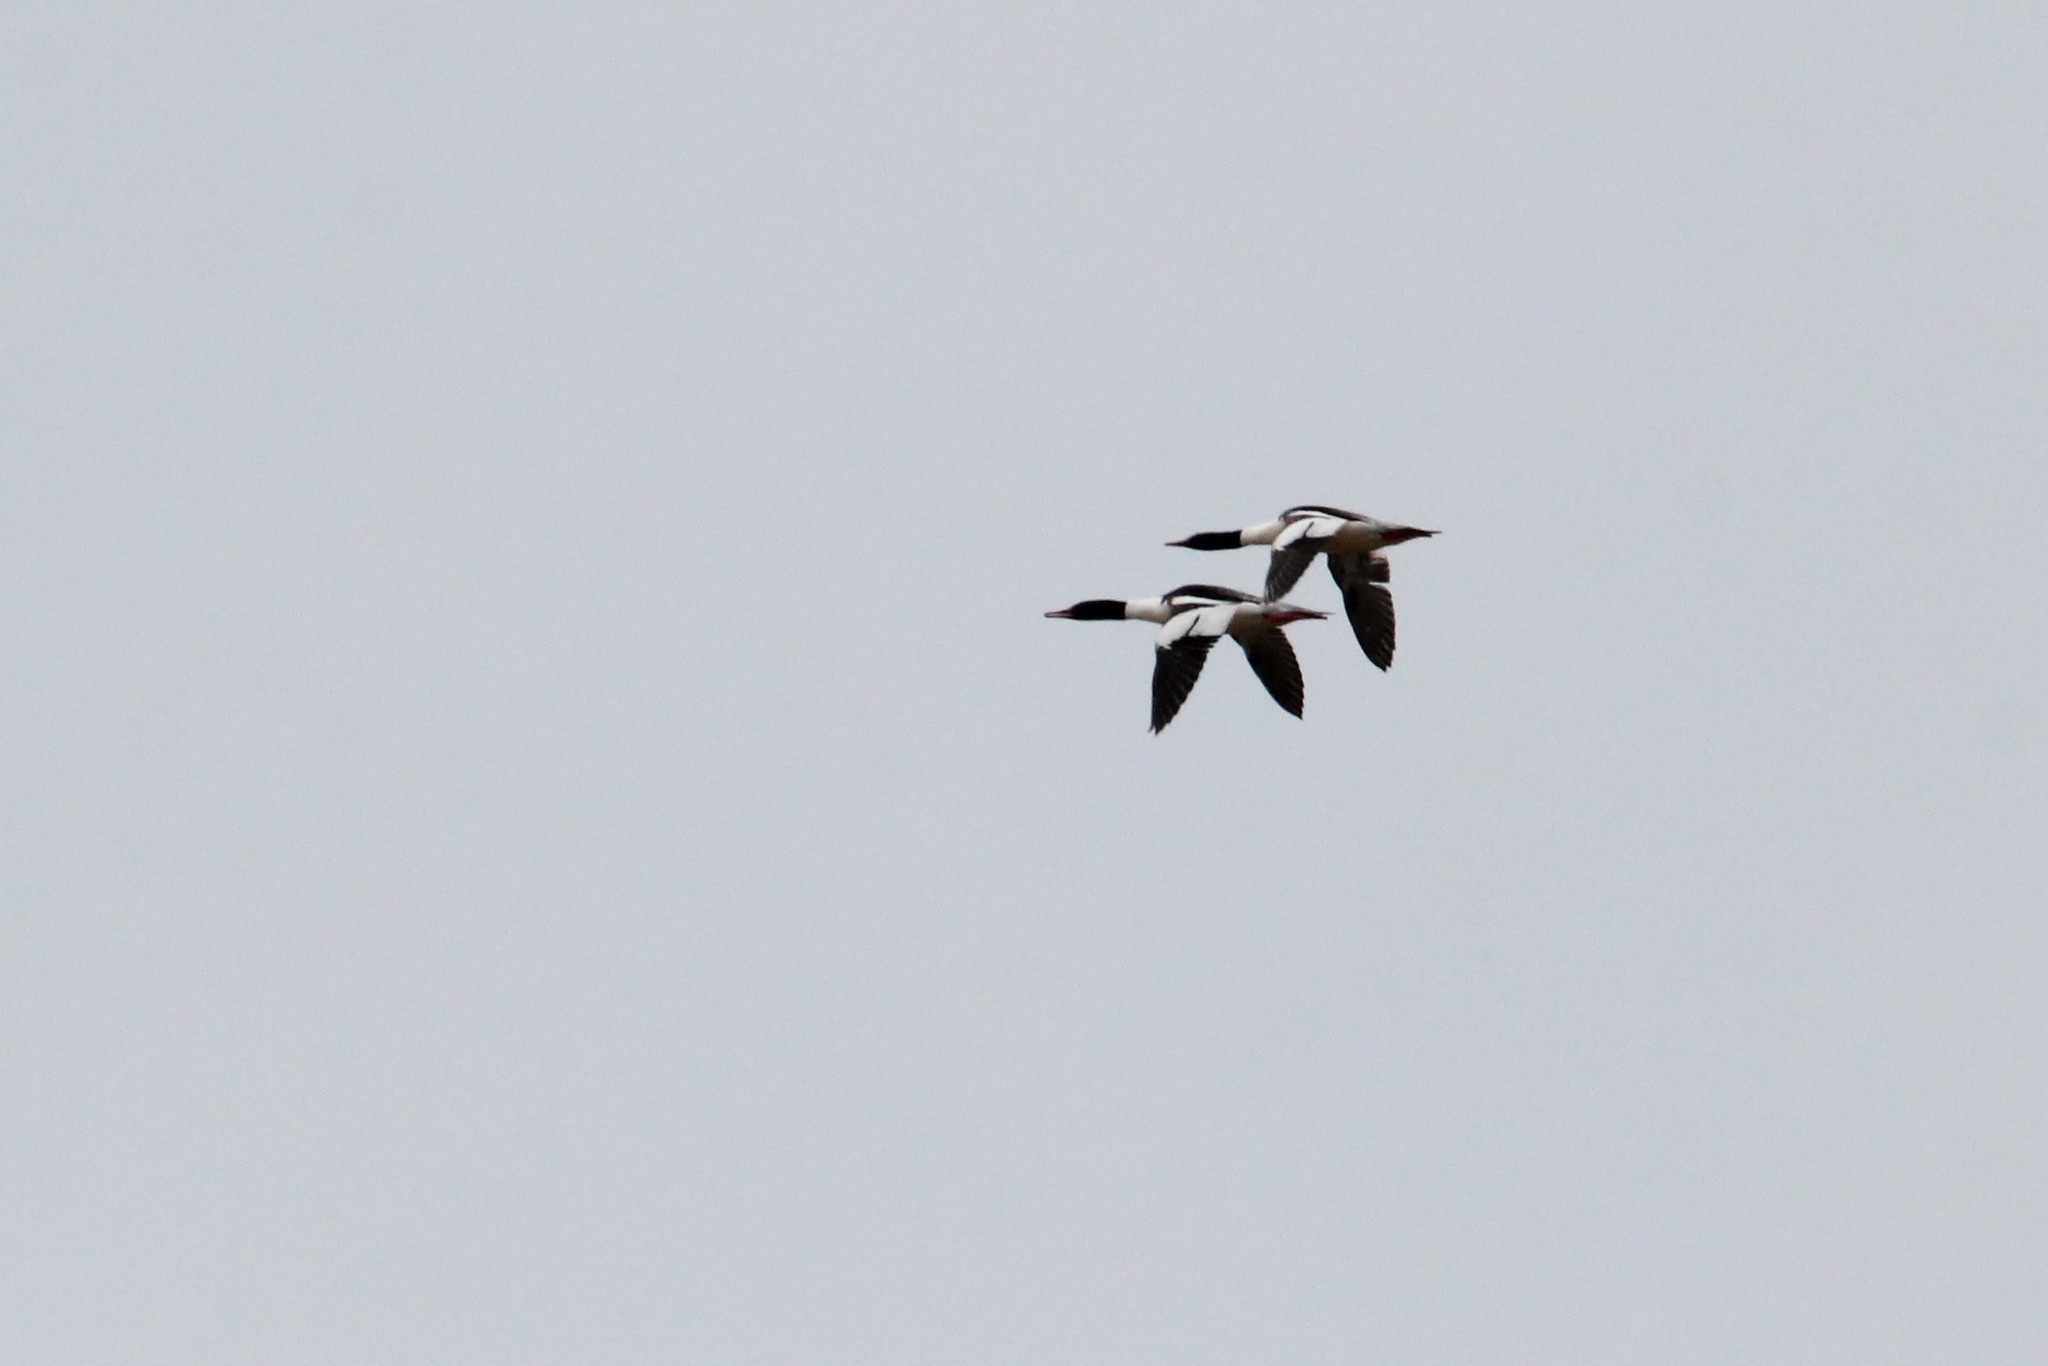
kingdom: Animalia
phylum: Chordata
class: Aves
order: Anseriformes
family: Anatidae
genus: Mergus
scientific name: Mergus merganser
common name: Common merganser
